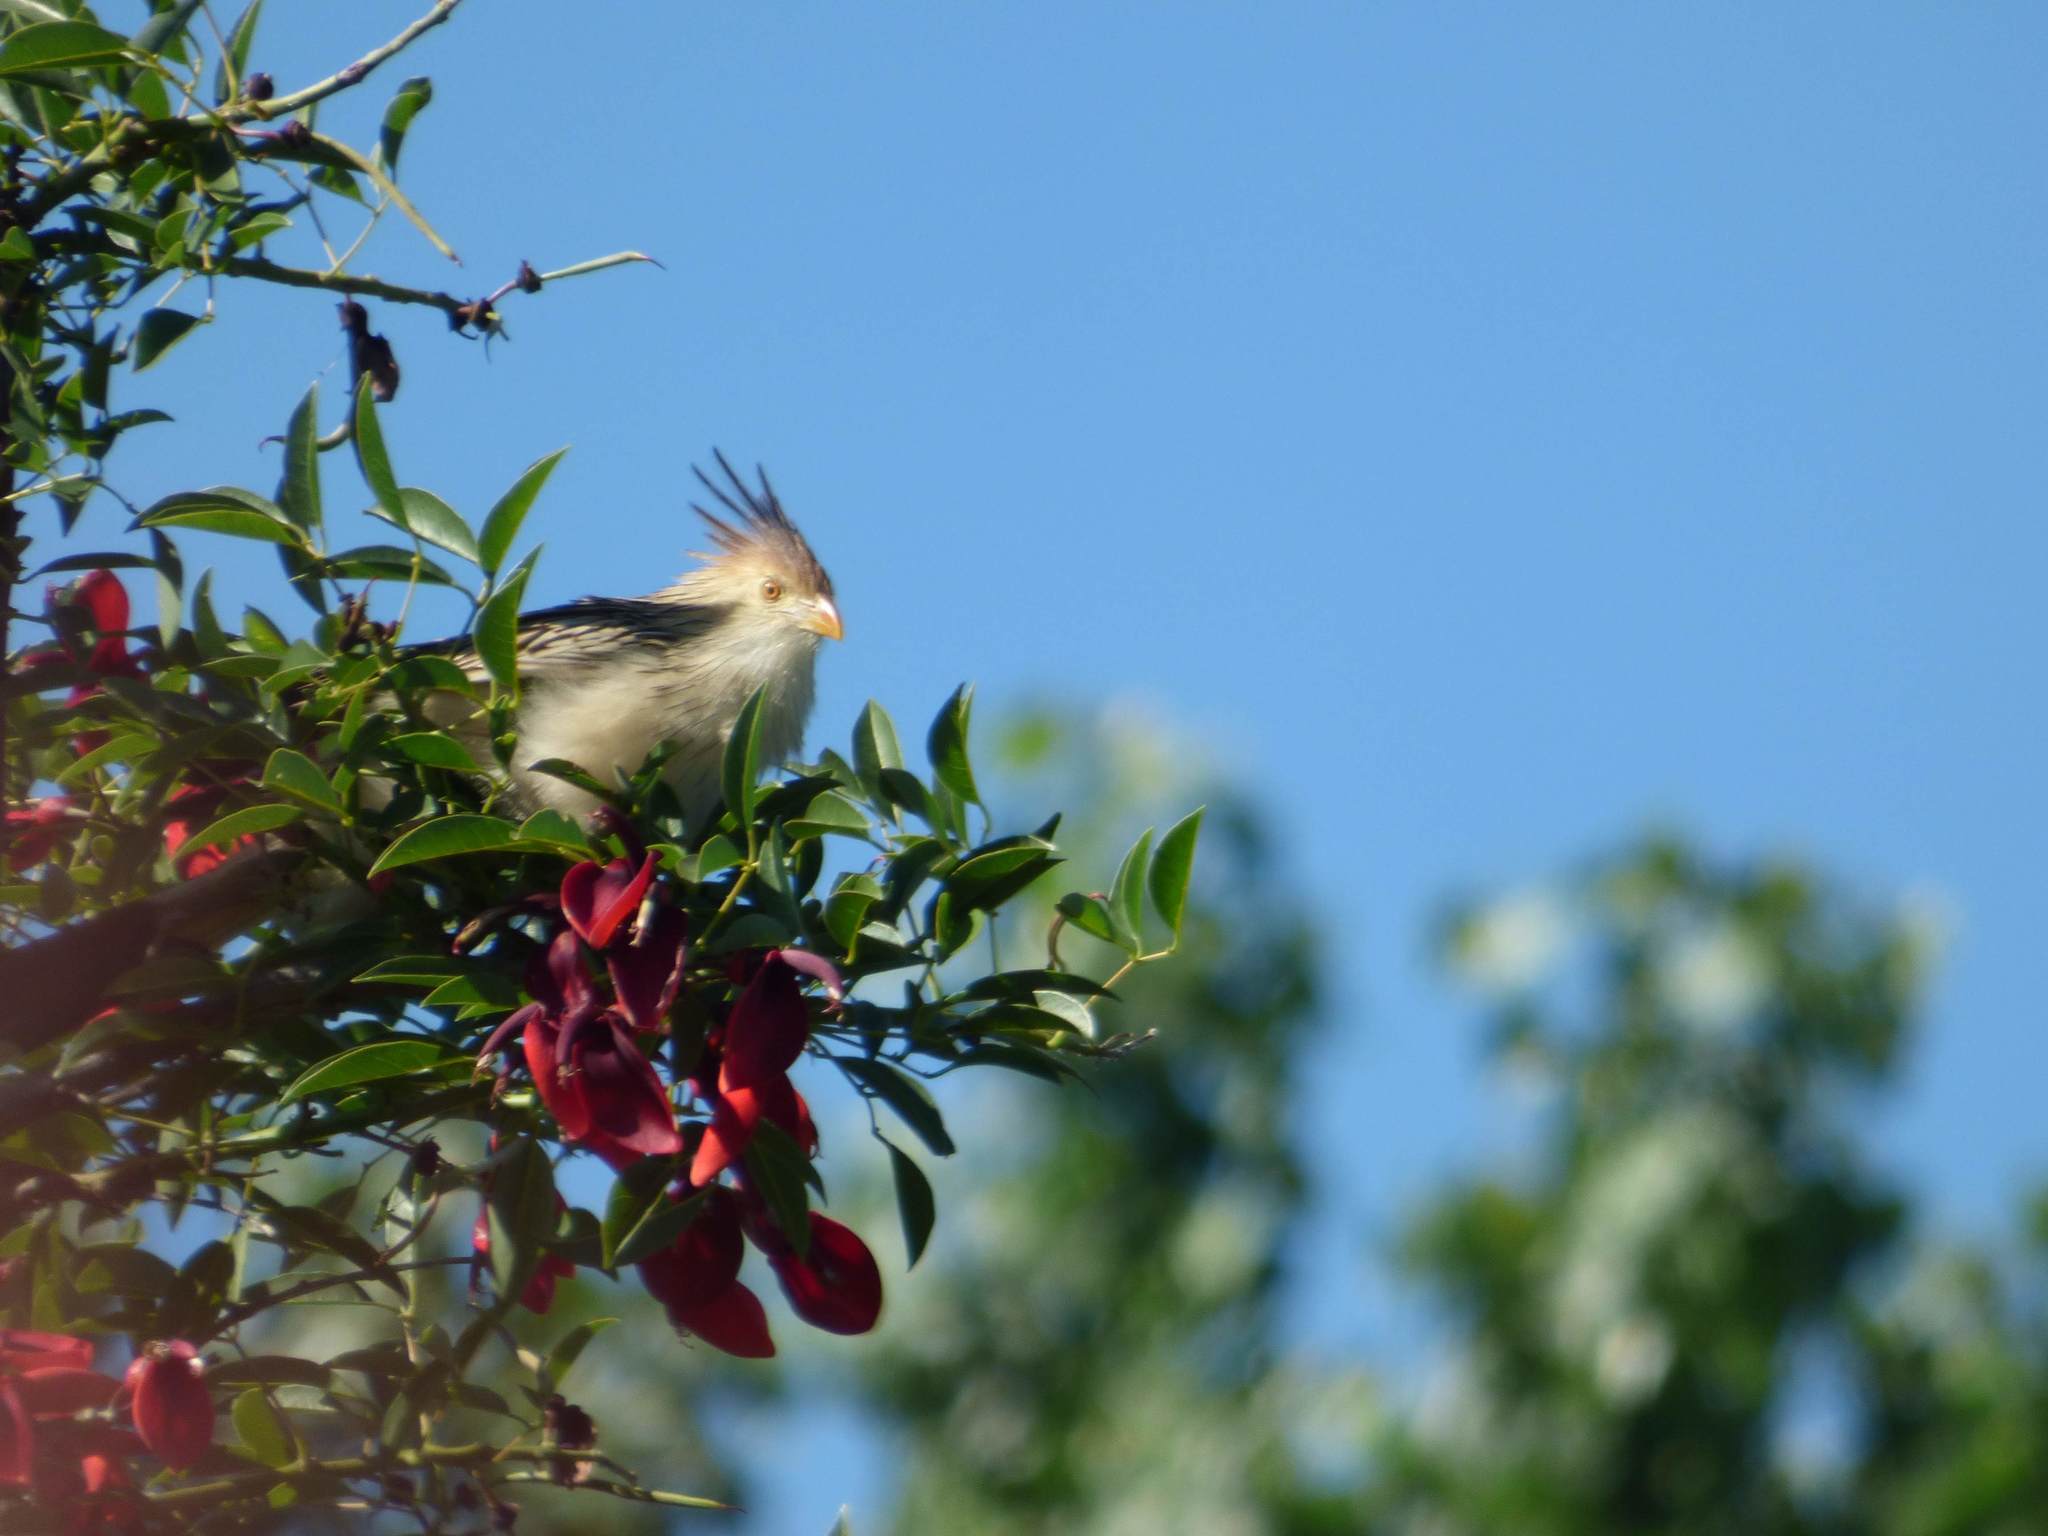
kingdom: Animalia
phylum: Chordata
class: Aves
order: Cuculiformes
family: Cuculidae
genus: Guira
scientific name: Guira guira
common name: Guira cuckoo
